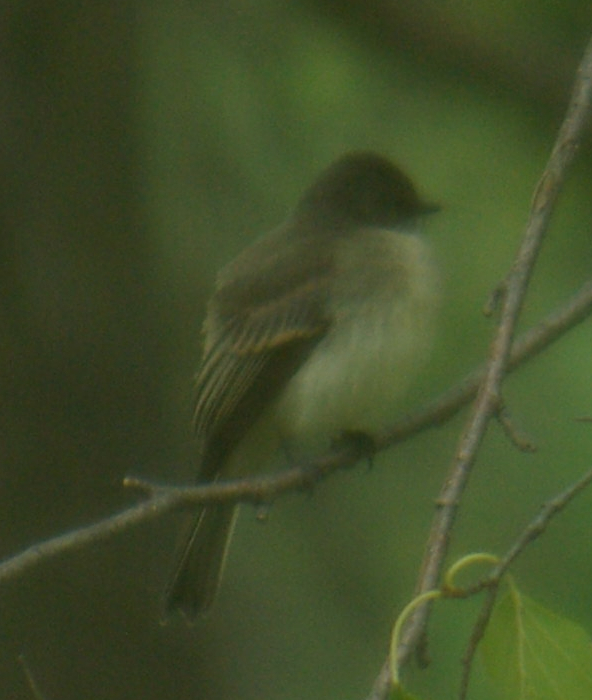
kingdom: Animalia
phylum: Chordata
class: Aves
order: Passeriformes
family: Tyrannidae
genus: Sayornis
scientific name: Sayornis phoebe
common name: Eastern phoebe
